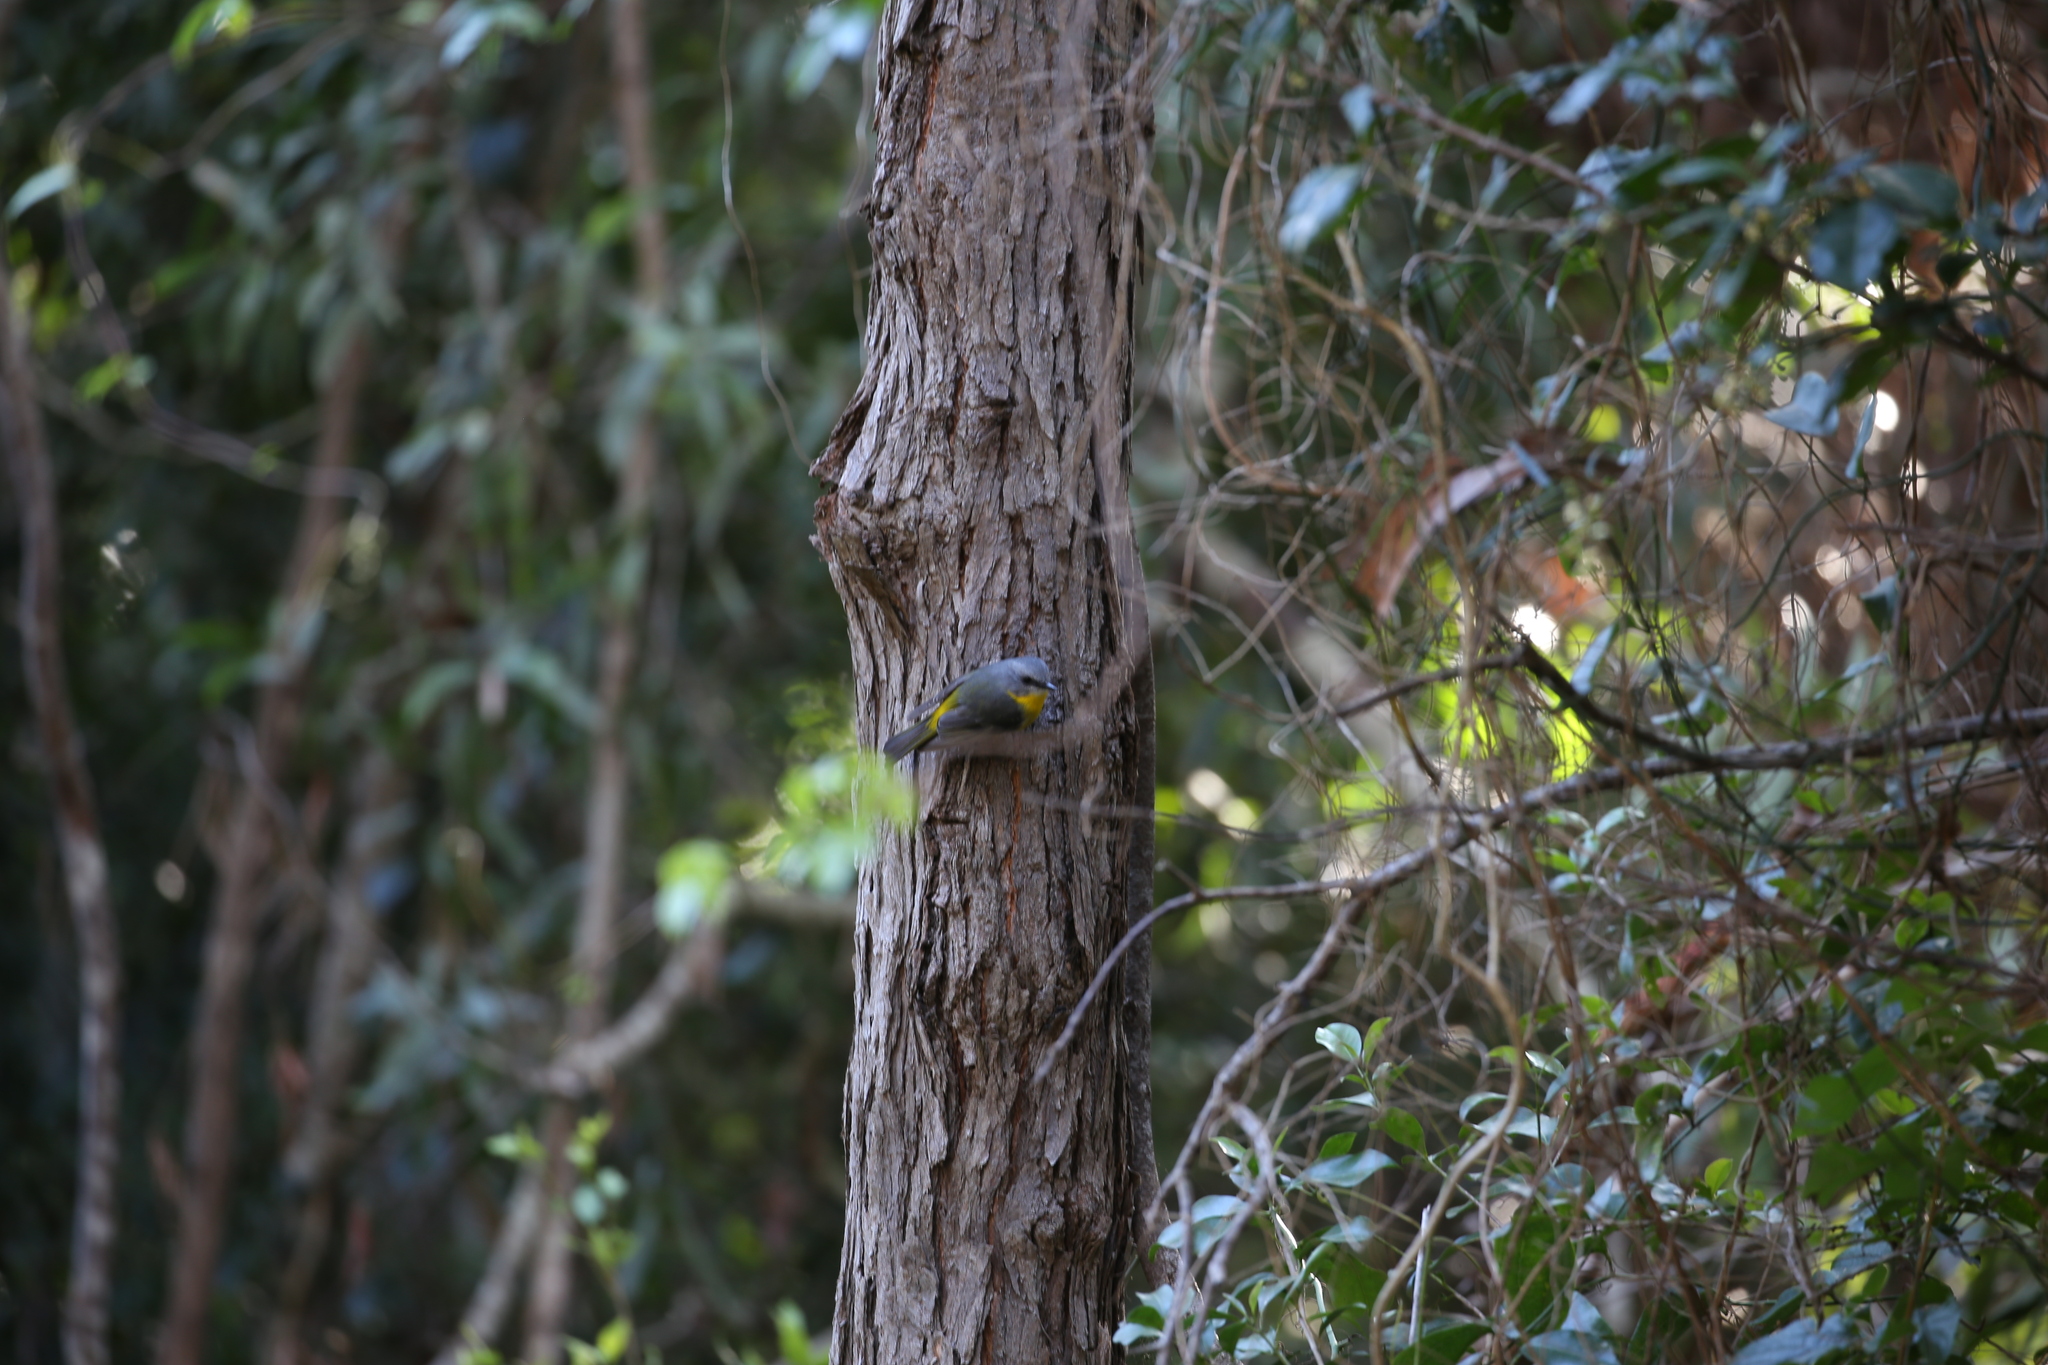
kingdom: Animalia
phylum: Chordata
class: Aves
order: Passeriformes
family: Petroicidae
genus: Eopsaltria
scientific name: Eopsaltria australis
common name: Eastern yellow robin
